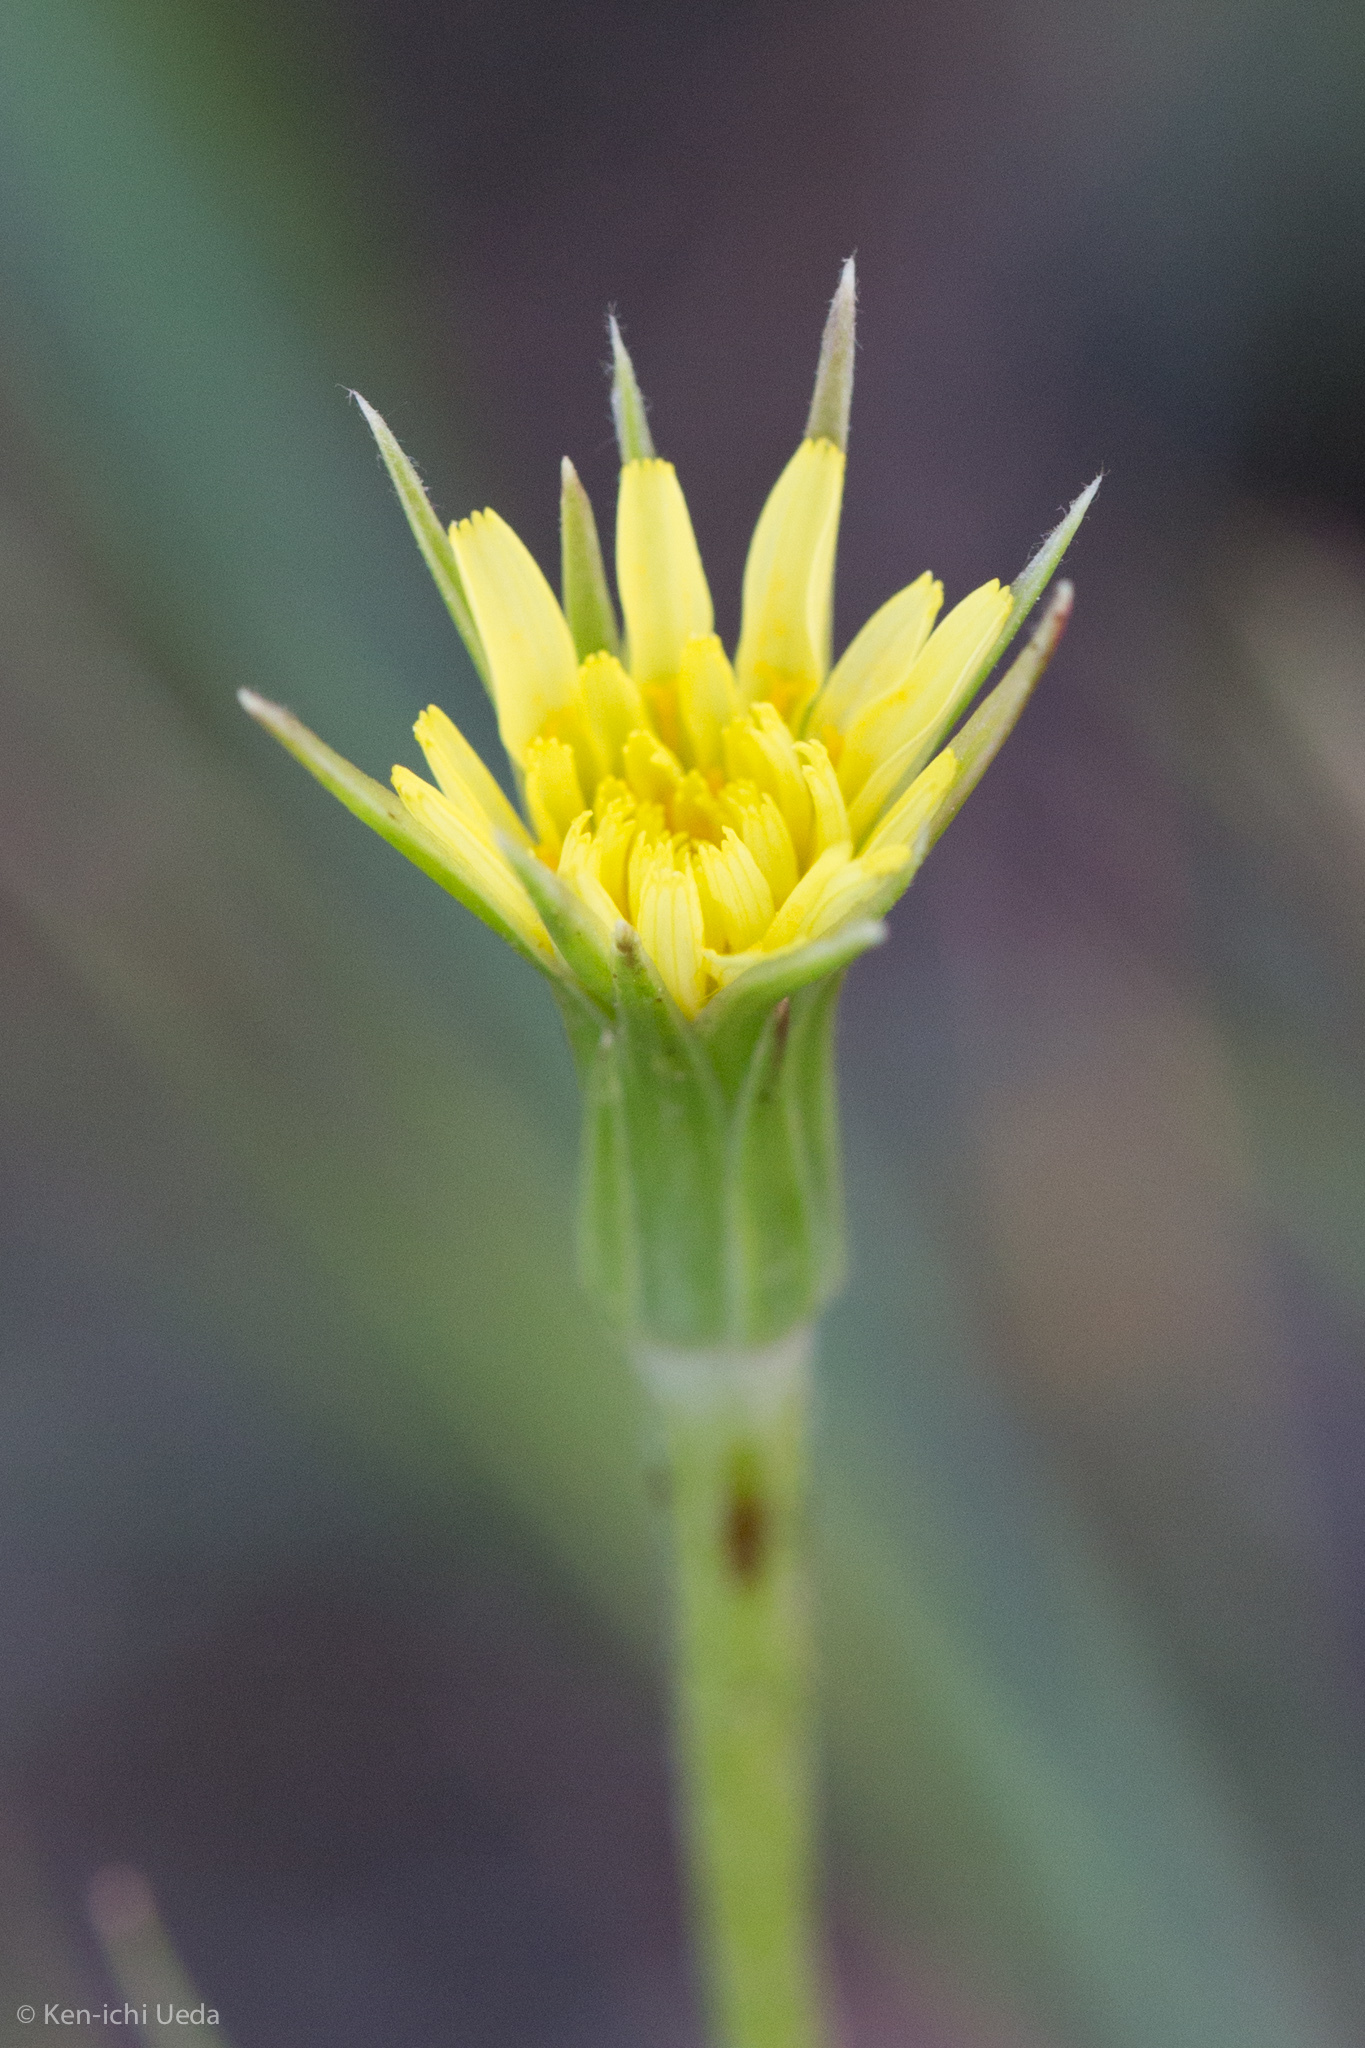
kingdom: Plantae
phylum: Tracheophyta
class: Magnoliopsida
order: Asterales
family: Asteraceae
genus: Microseris
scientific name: Microseris lindleyi
